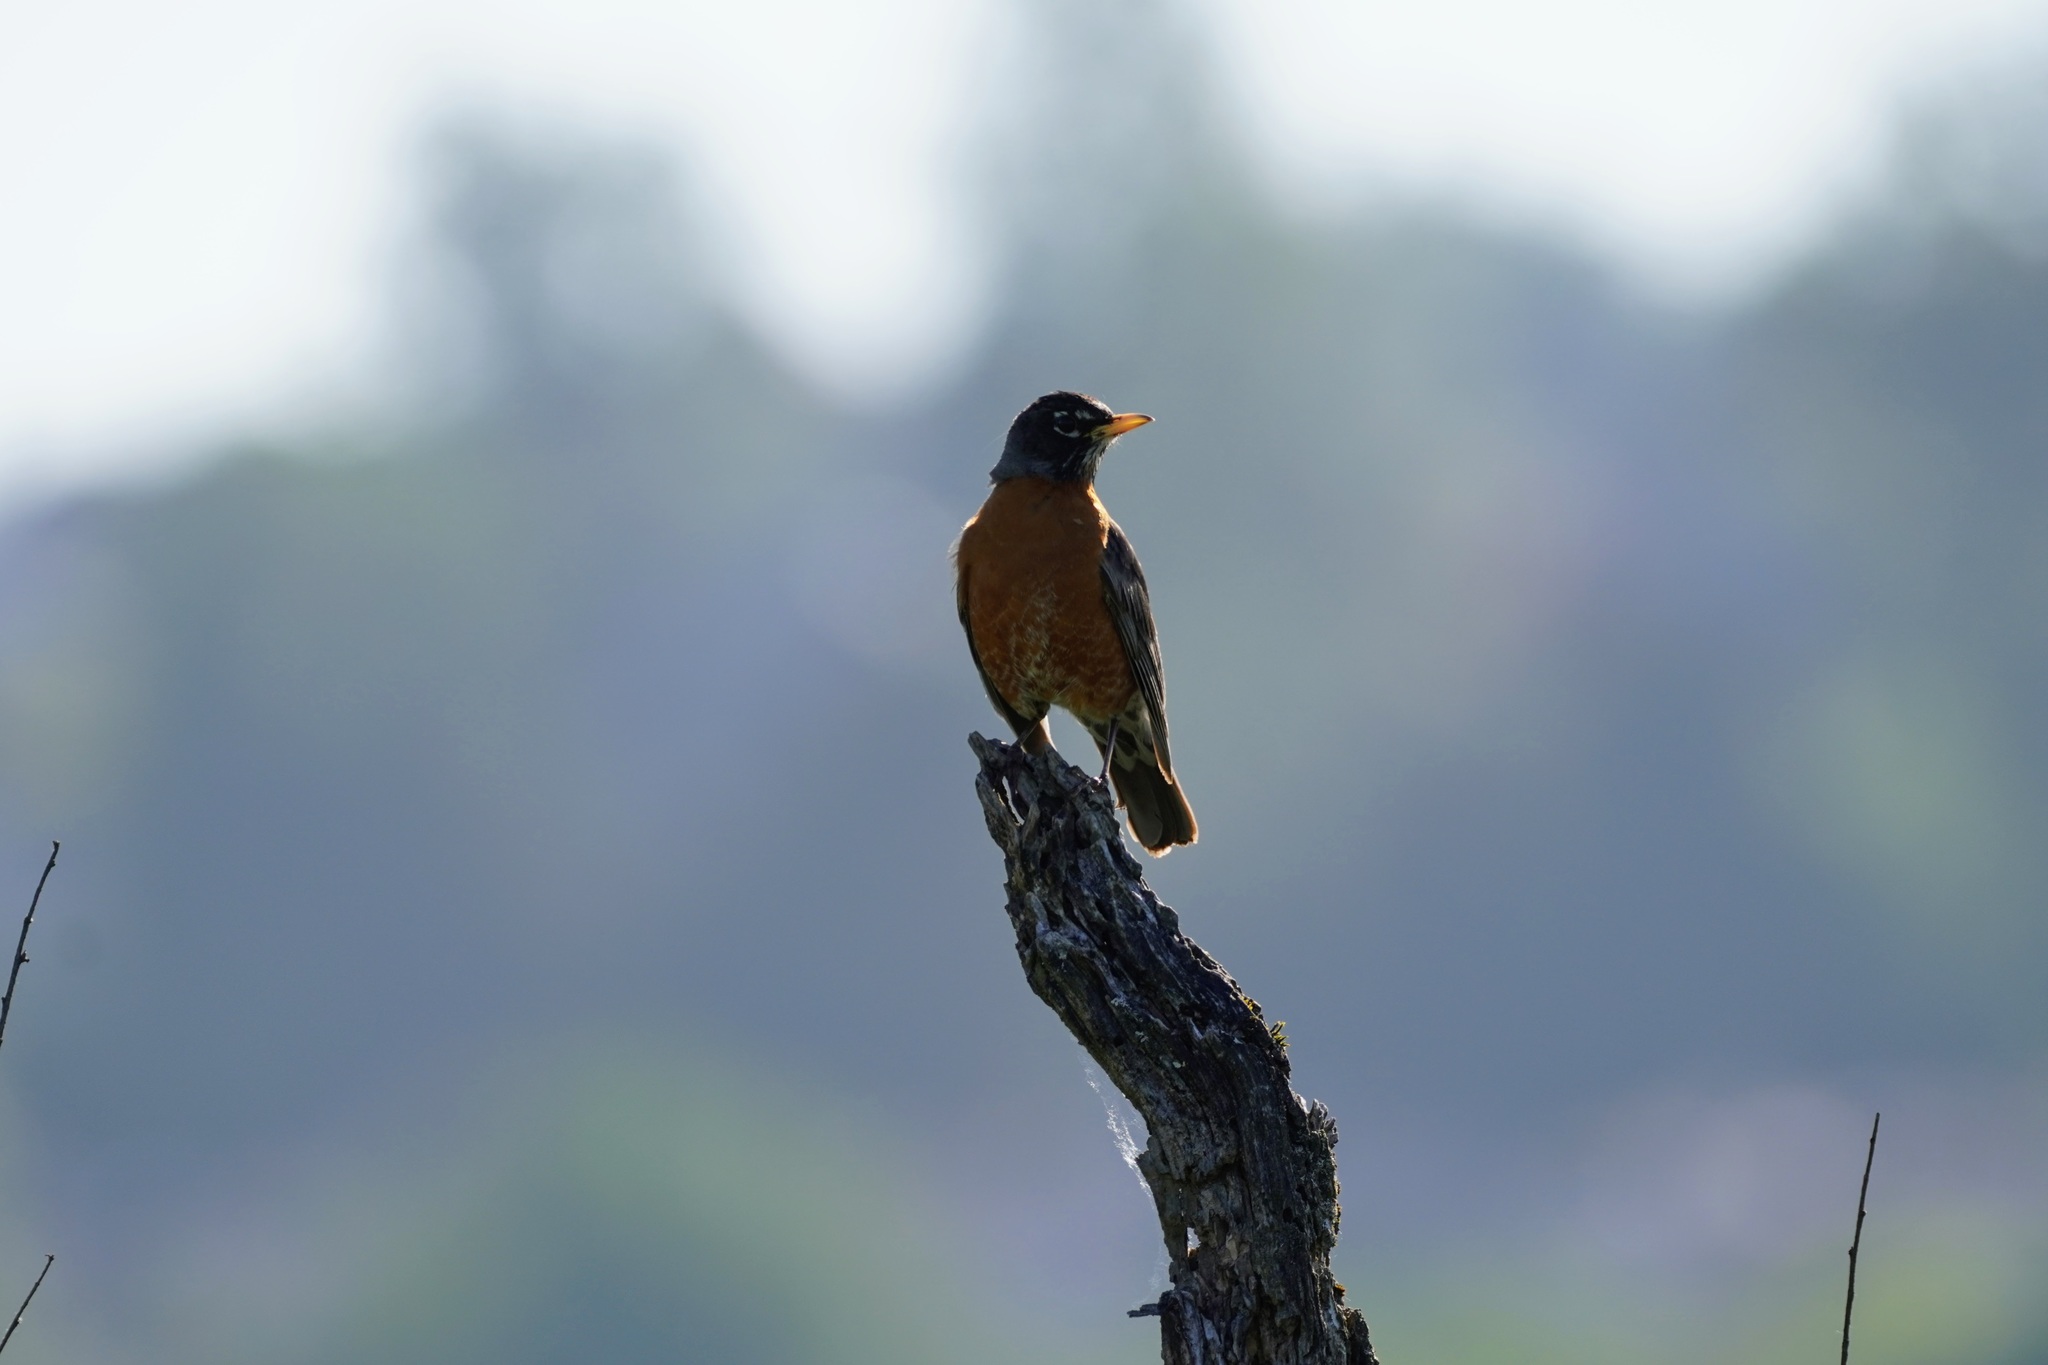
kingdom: Animalia
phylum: Chordata
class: Aves
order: Passeriformes
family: Turdidae
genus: Turdus
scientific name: Turdus migratorius
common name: American robin
